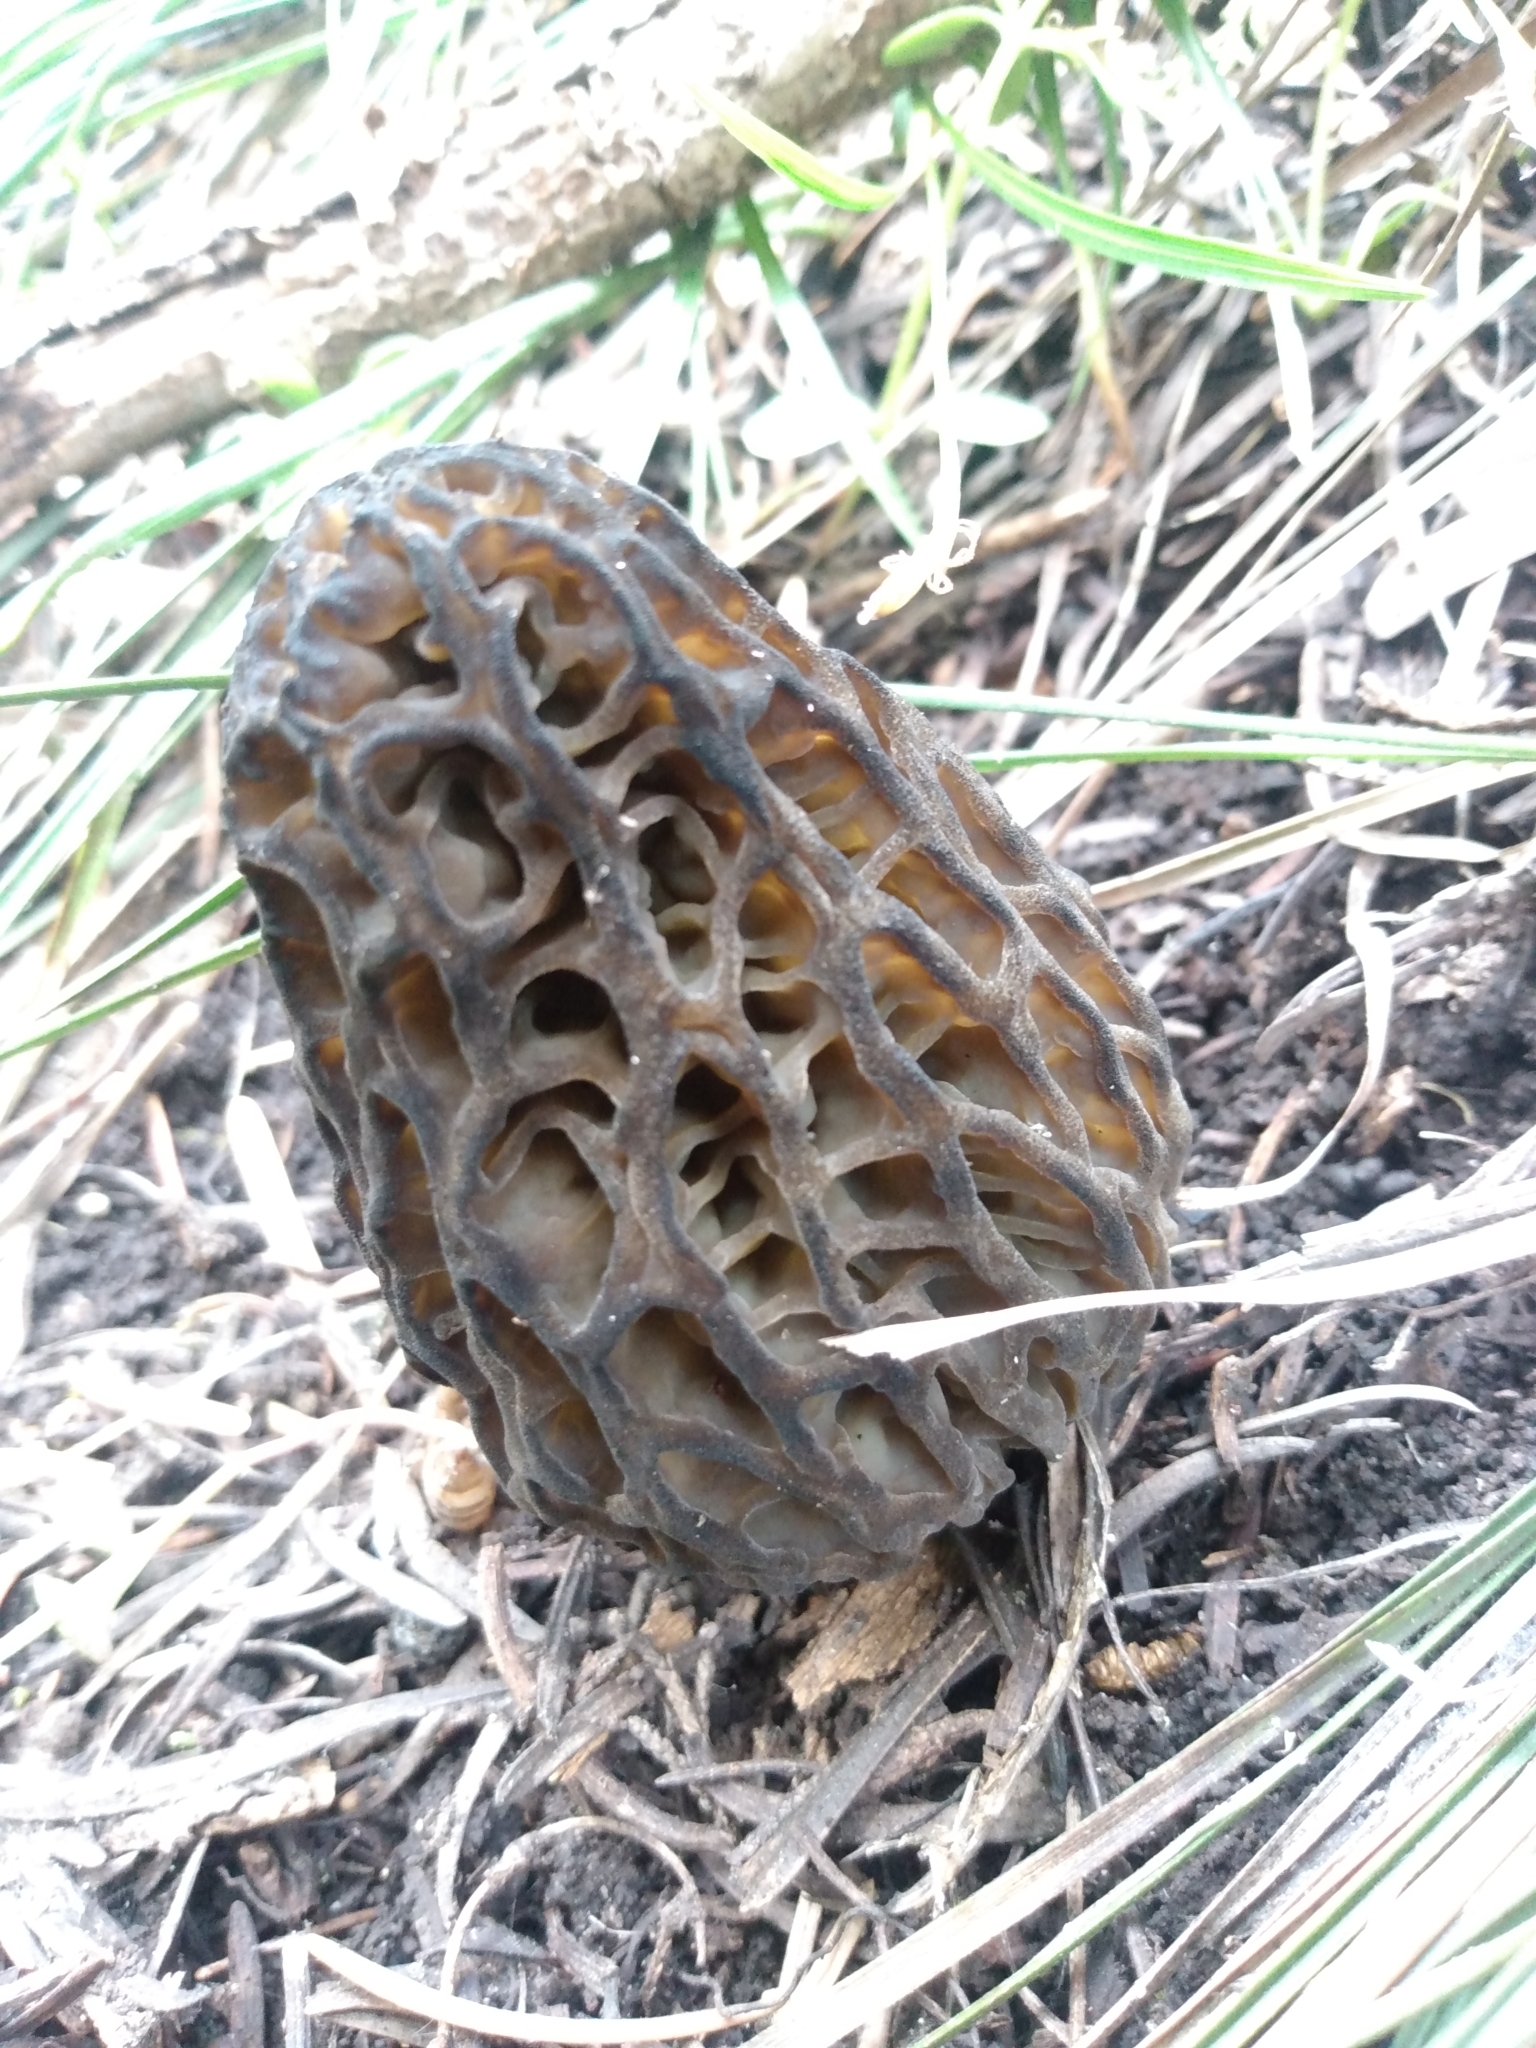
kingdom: Fungi
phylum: Ascomycota
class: Pezizomycetes
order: Pezizales
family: Morchellaceae
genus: Morchella
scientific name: Morchella snyderi
